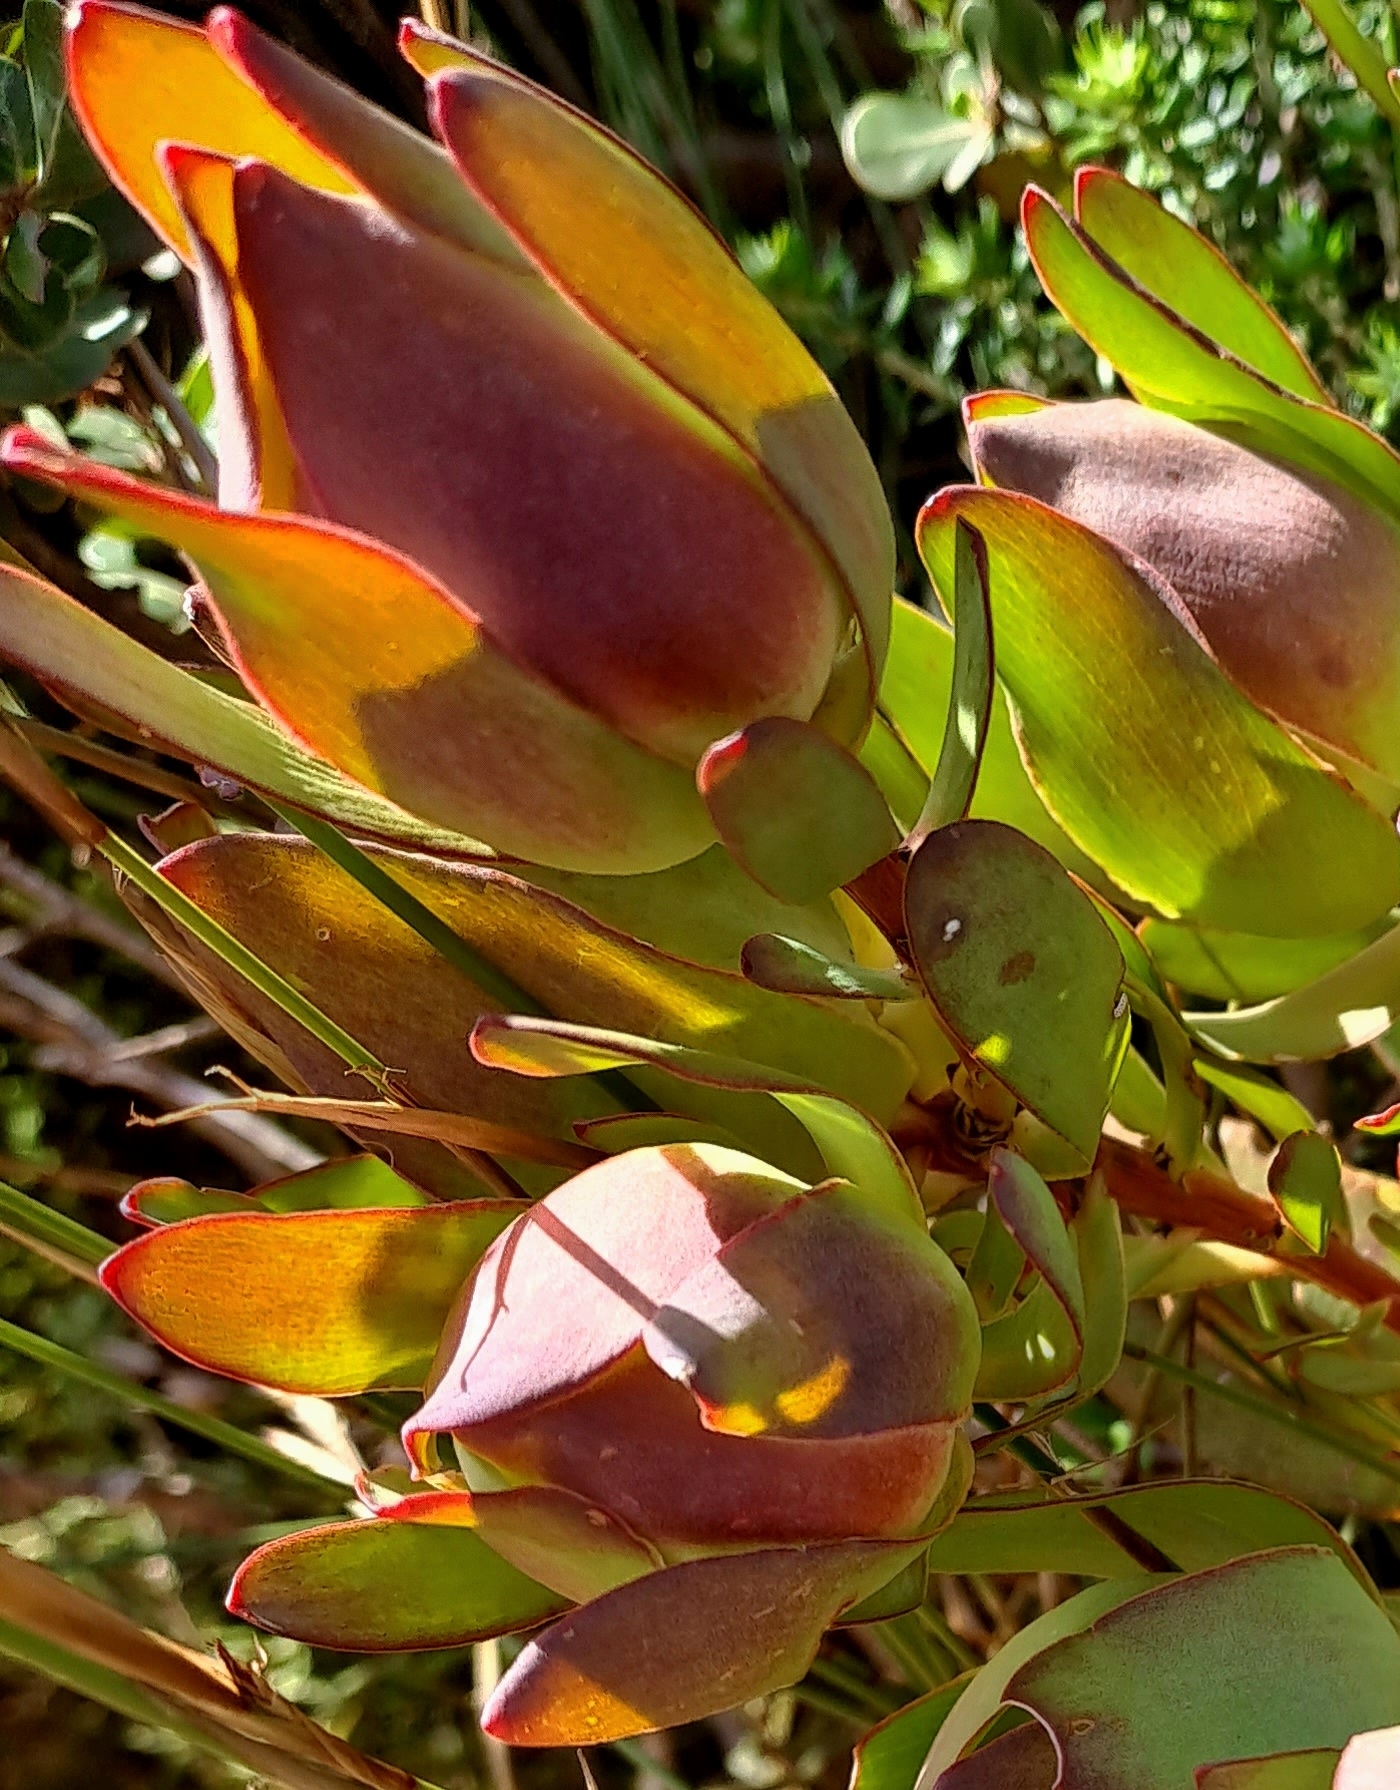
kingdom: Plantae
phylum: Tracheophyta
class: Magnoliopsida
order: Proteales
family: Proteaceae
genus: Leucadendron
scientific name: Leucadendron salignum
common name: Common sunshine conebush
